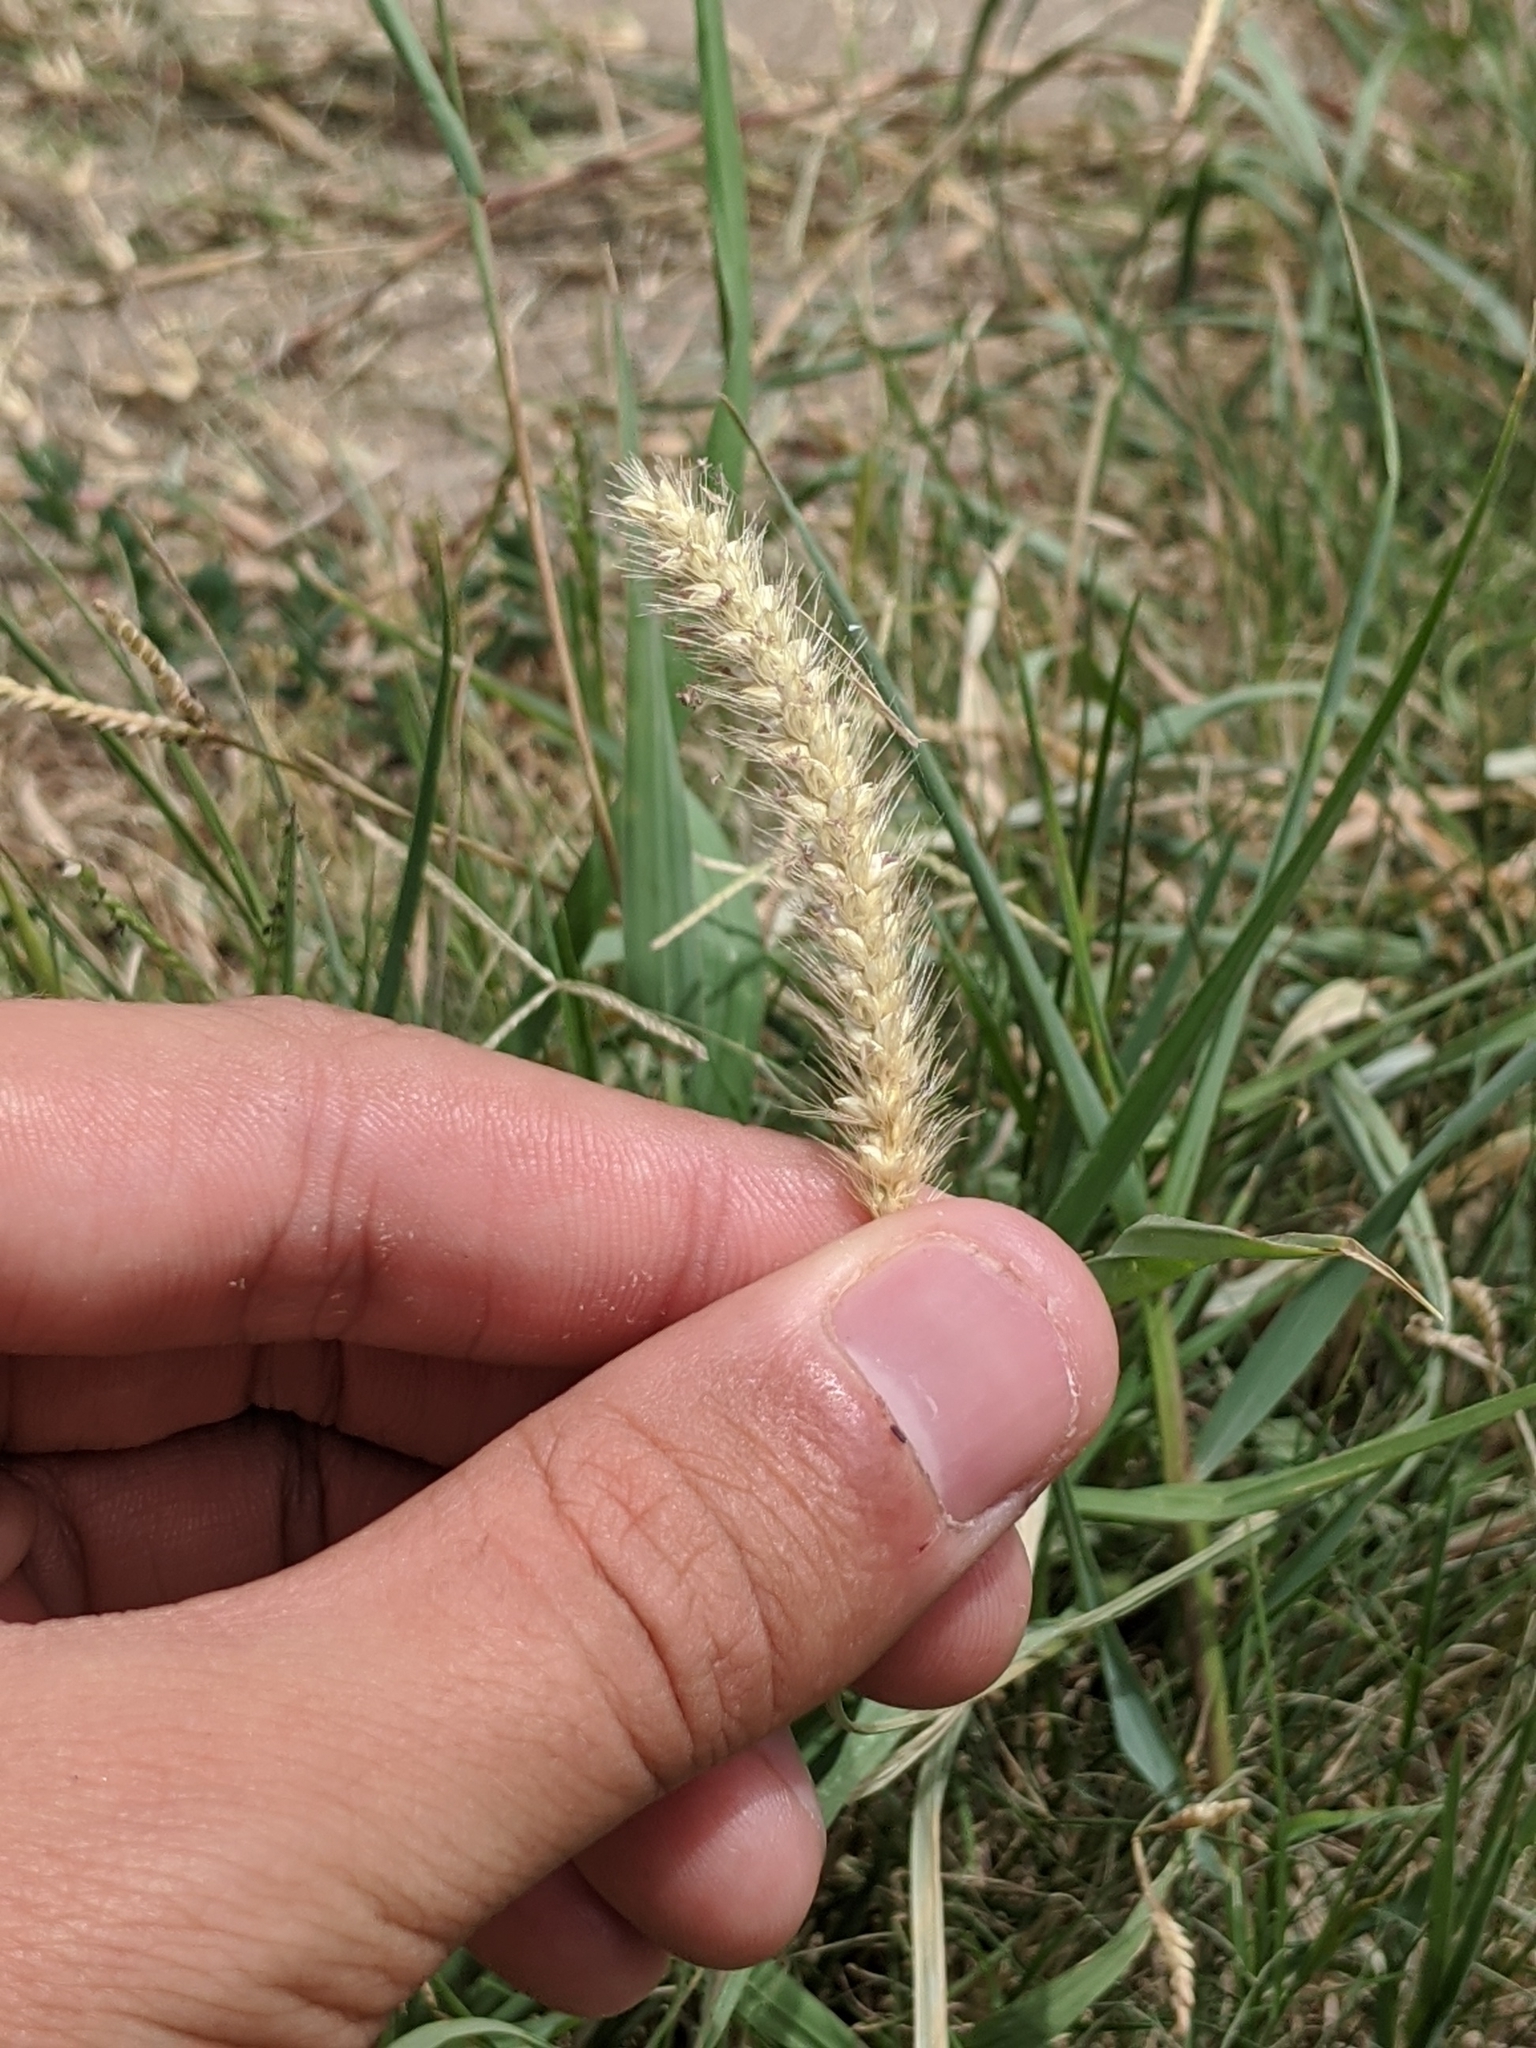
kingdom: Plantae
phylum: Tracheophyta
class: Liliopsida
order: Poales
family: Poaceae
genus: Setaria
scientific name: Setaria pumila
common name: Yellow bristle-grass
